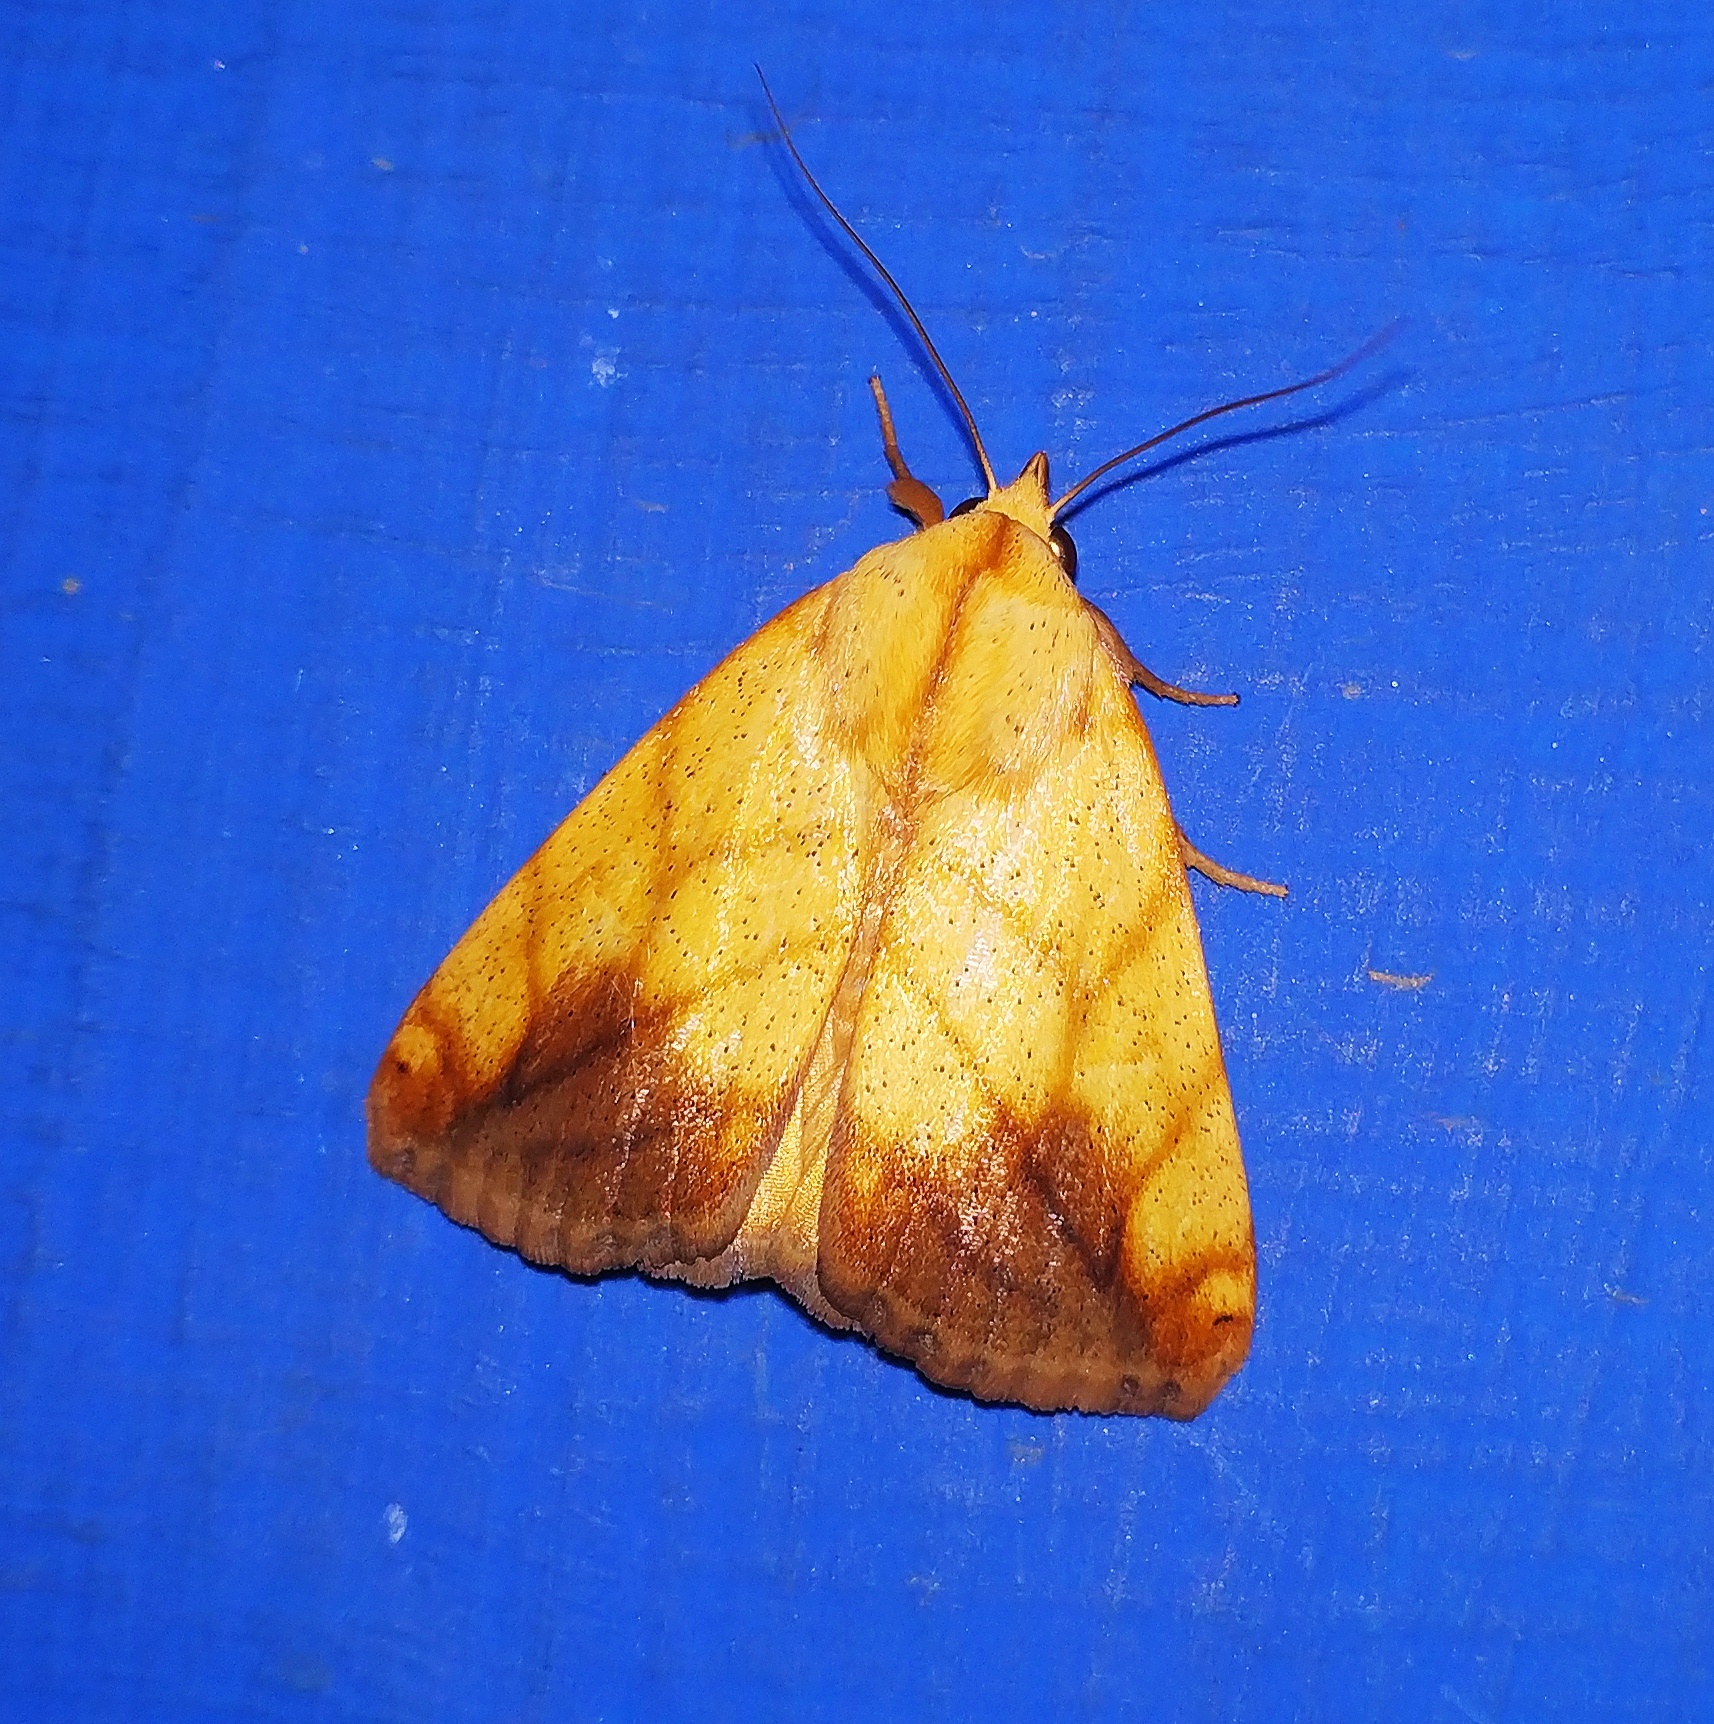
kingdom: Animalia
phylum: Arthropoda
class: Insecta
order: Lepidoptera
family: Nolidae
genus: Xanthodes
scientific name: Xanthodes transversa
